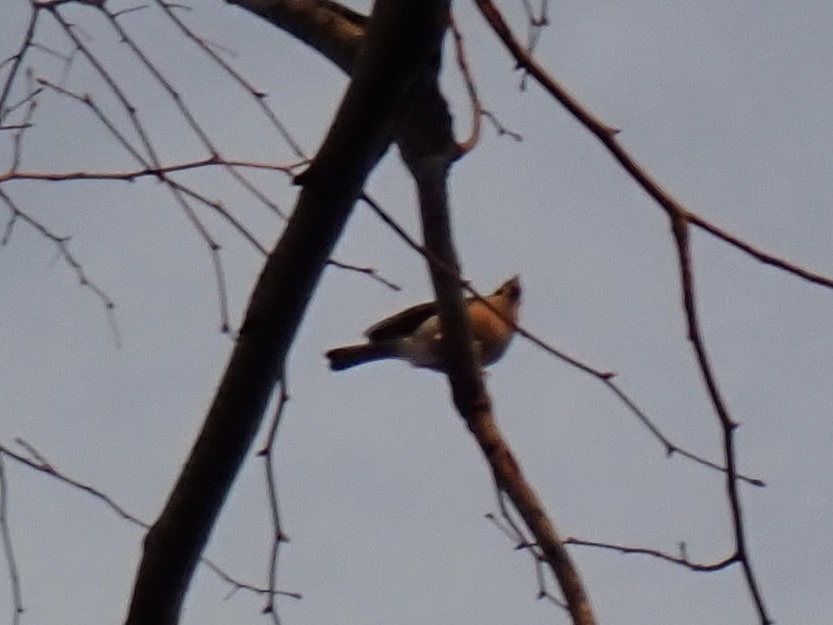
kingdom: Animalia
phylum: Chordata
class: Aves
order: Passeriformes
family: Paridae
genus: Baeolophus
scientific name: Baeolophus bicolor
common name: Tufted titmouse
